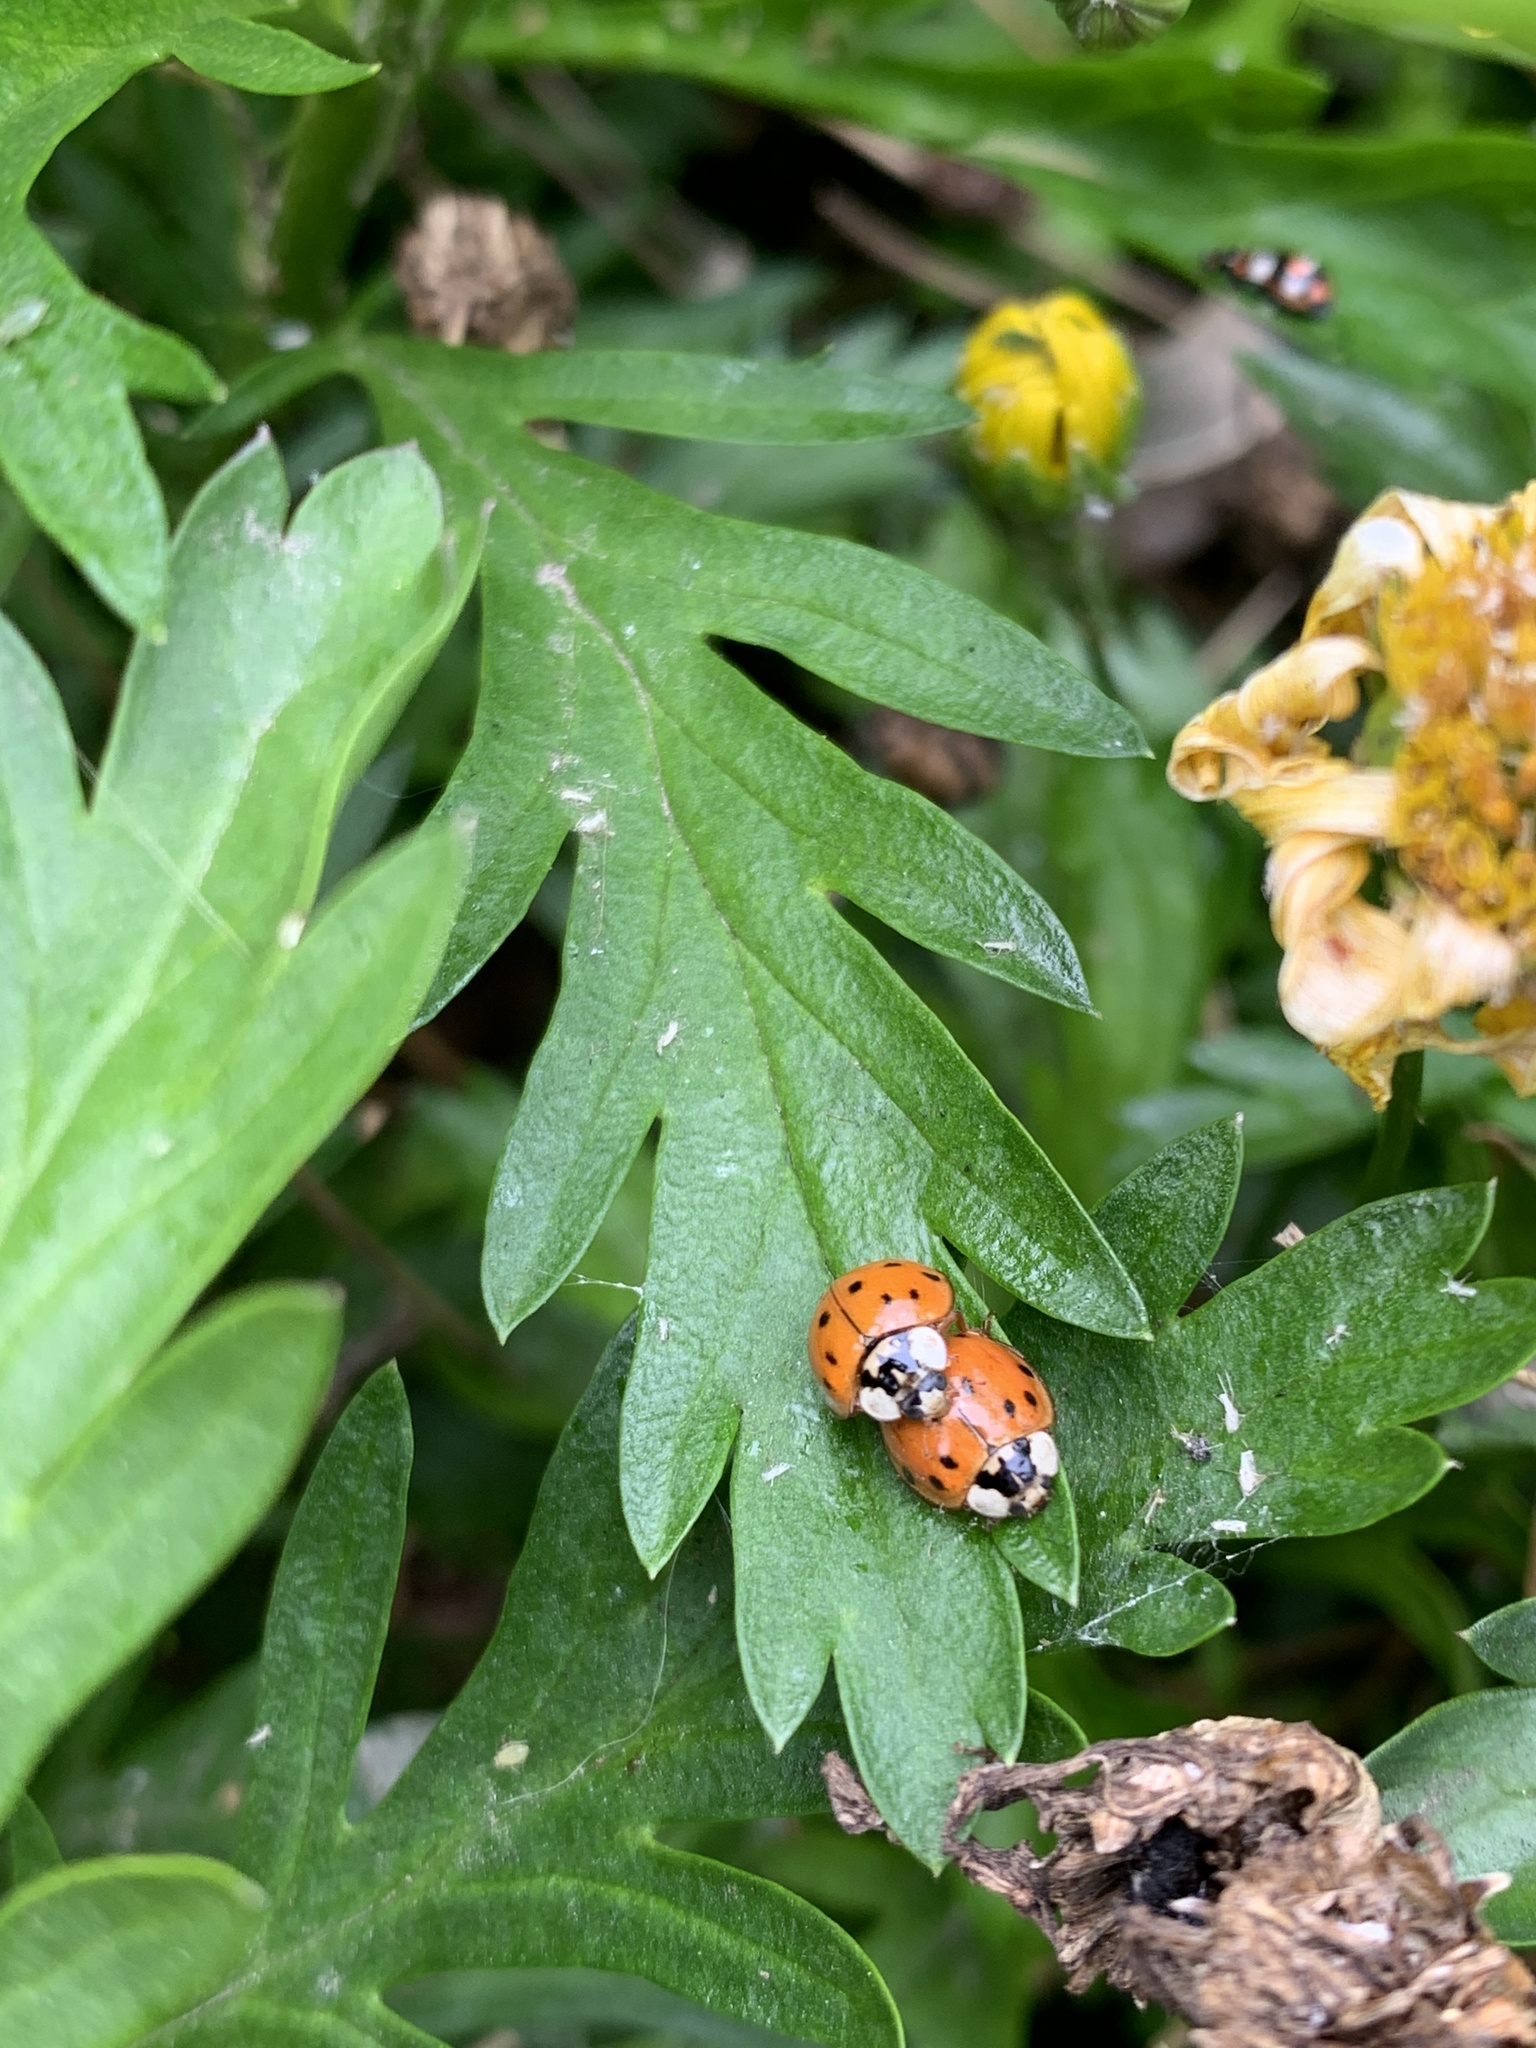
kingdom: Animalia
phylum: Arthropoda
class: Insecta
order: Coleoptera
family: Coccinellidae
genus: Harmonia
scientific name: Harmonia axyridis
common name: Harlequin ladybird
